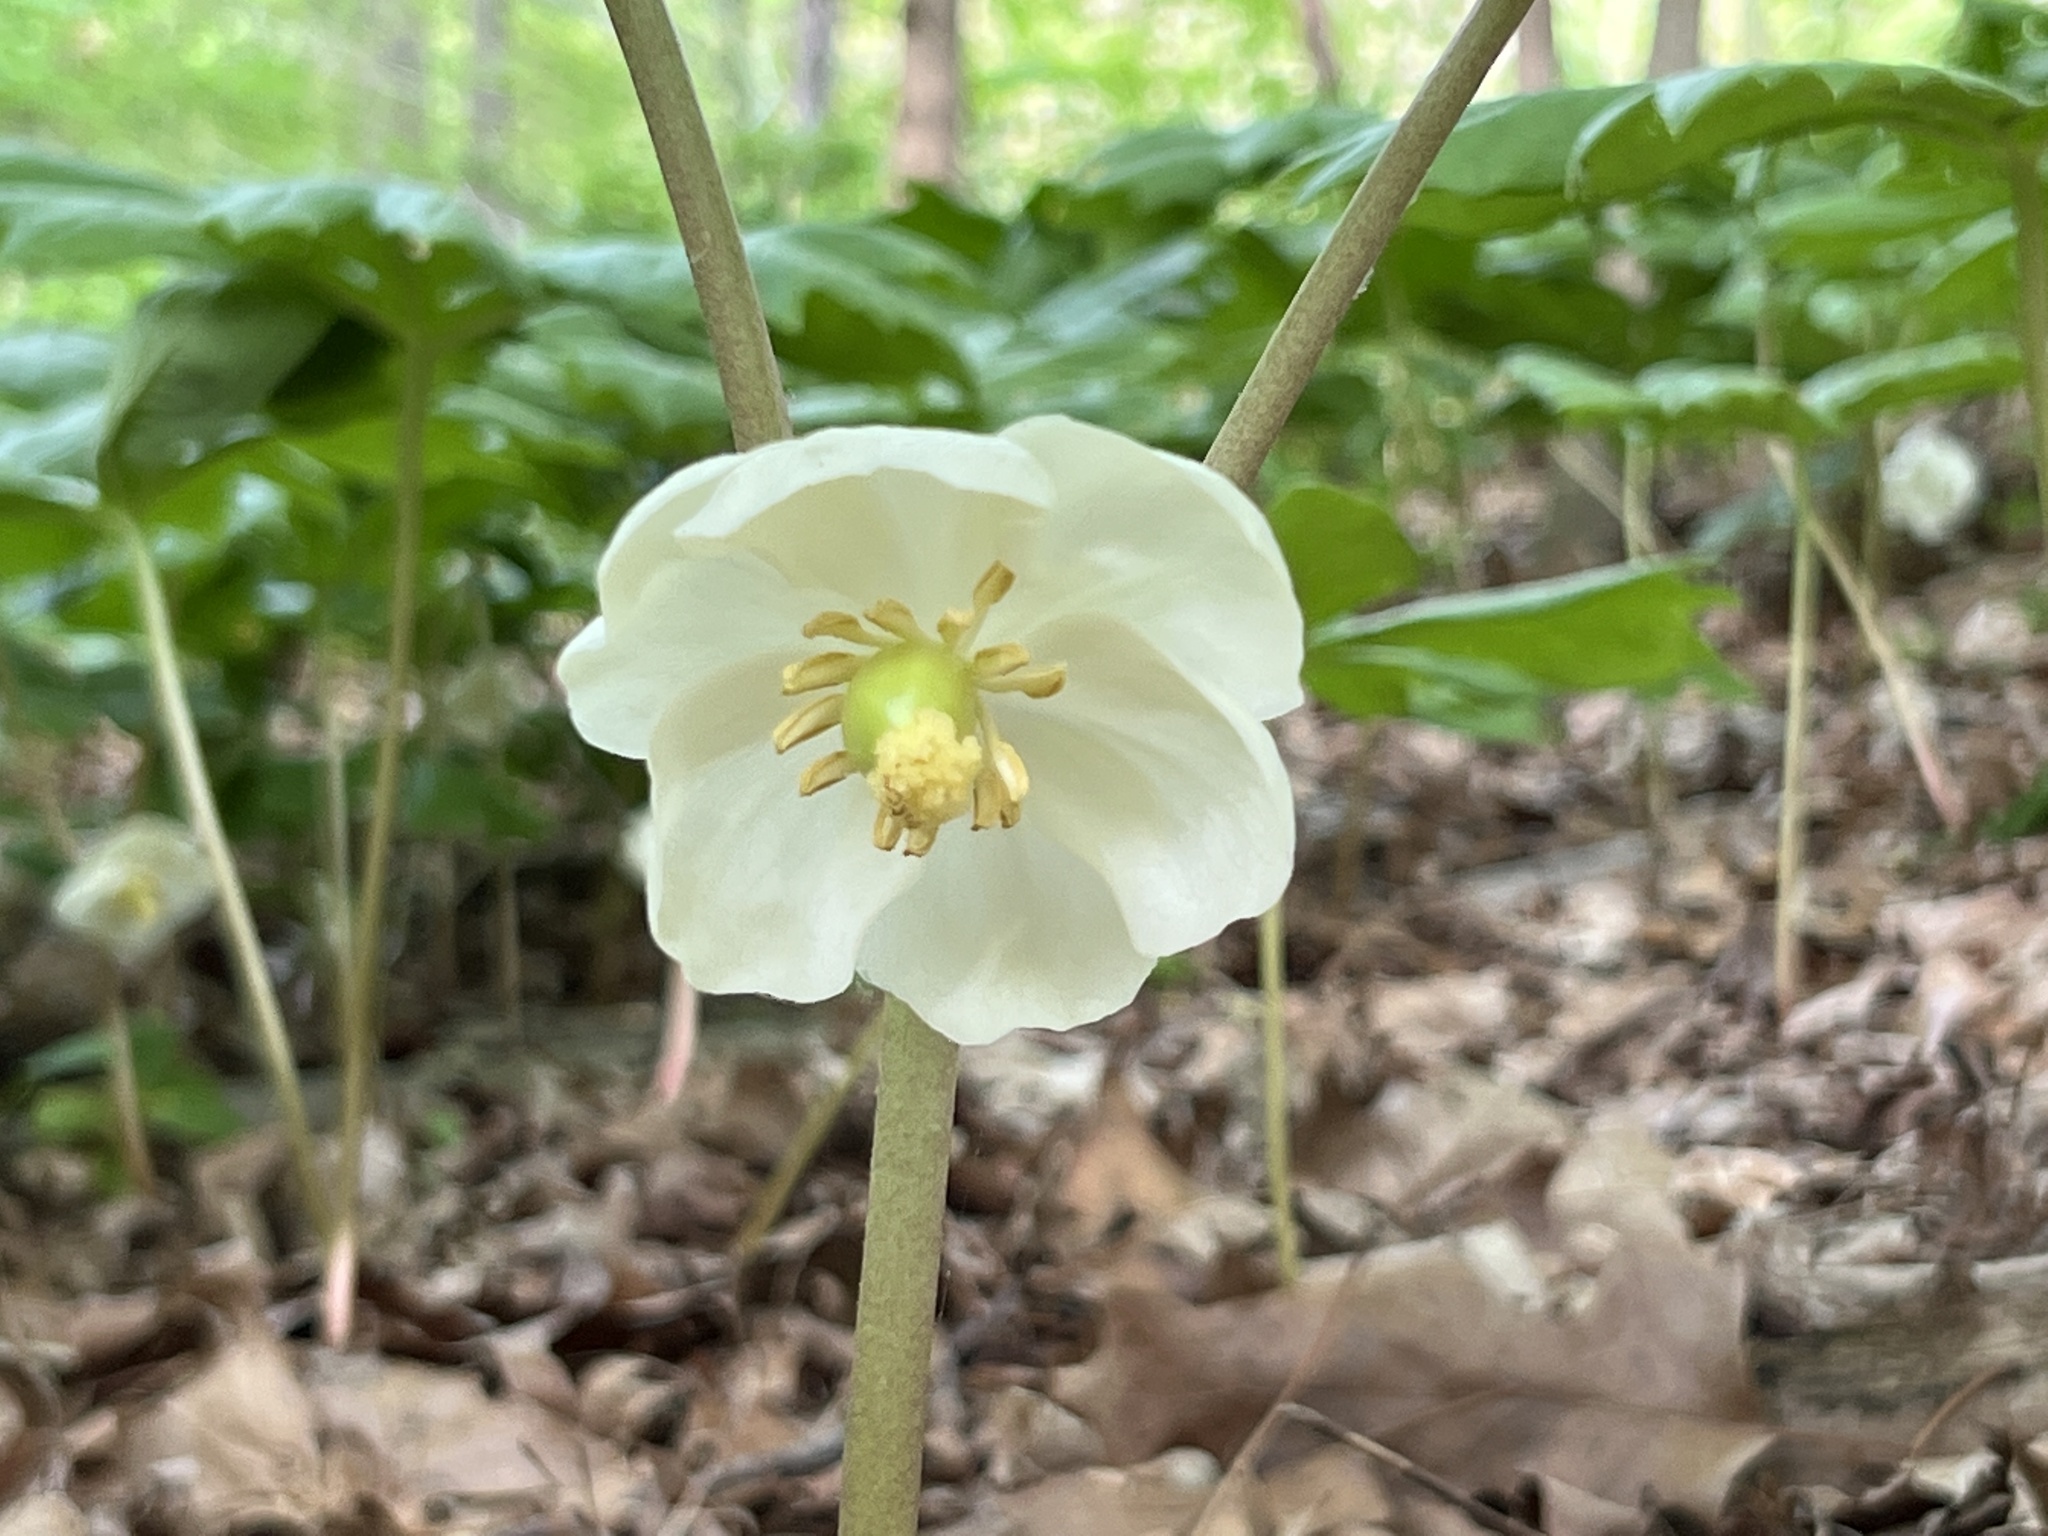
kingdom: Plantae
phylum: Tracheophyta
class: Magnoliopsida
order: Ranunculales
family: Berberidaceae
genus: Podophyllum
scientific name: Podophyllum peltatum
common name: Wild mandrake
